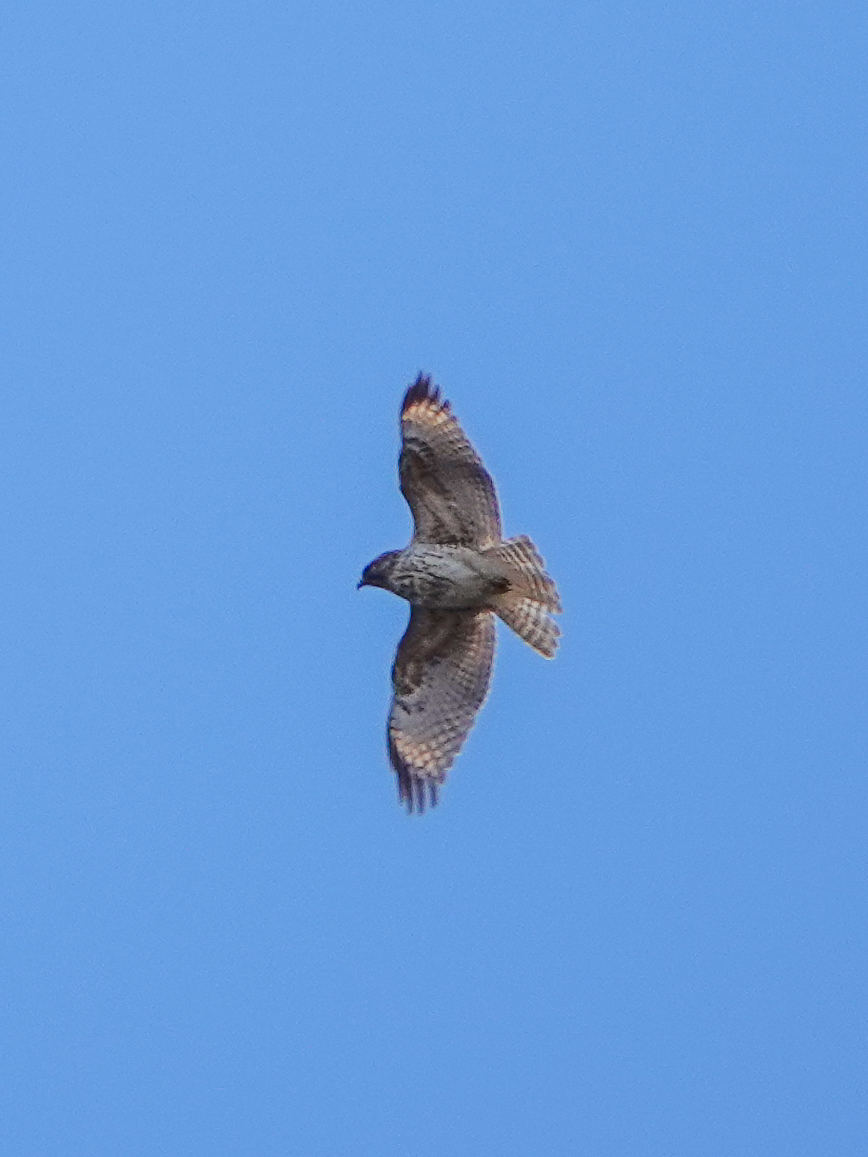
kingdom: Animalia
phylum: Chordata
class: Aves
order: Accipitriformes
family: Accipitridae
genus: Buteo
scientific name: Buteo lineatus
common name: Red-shouldered hawk
